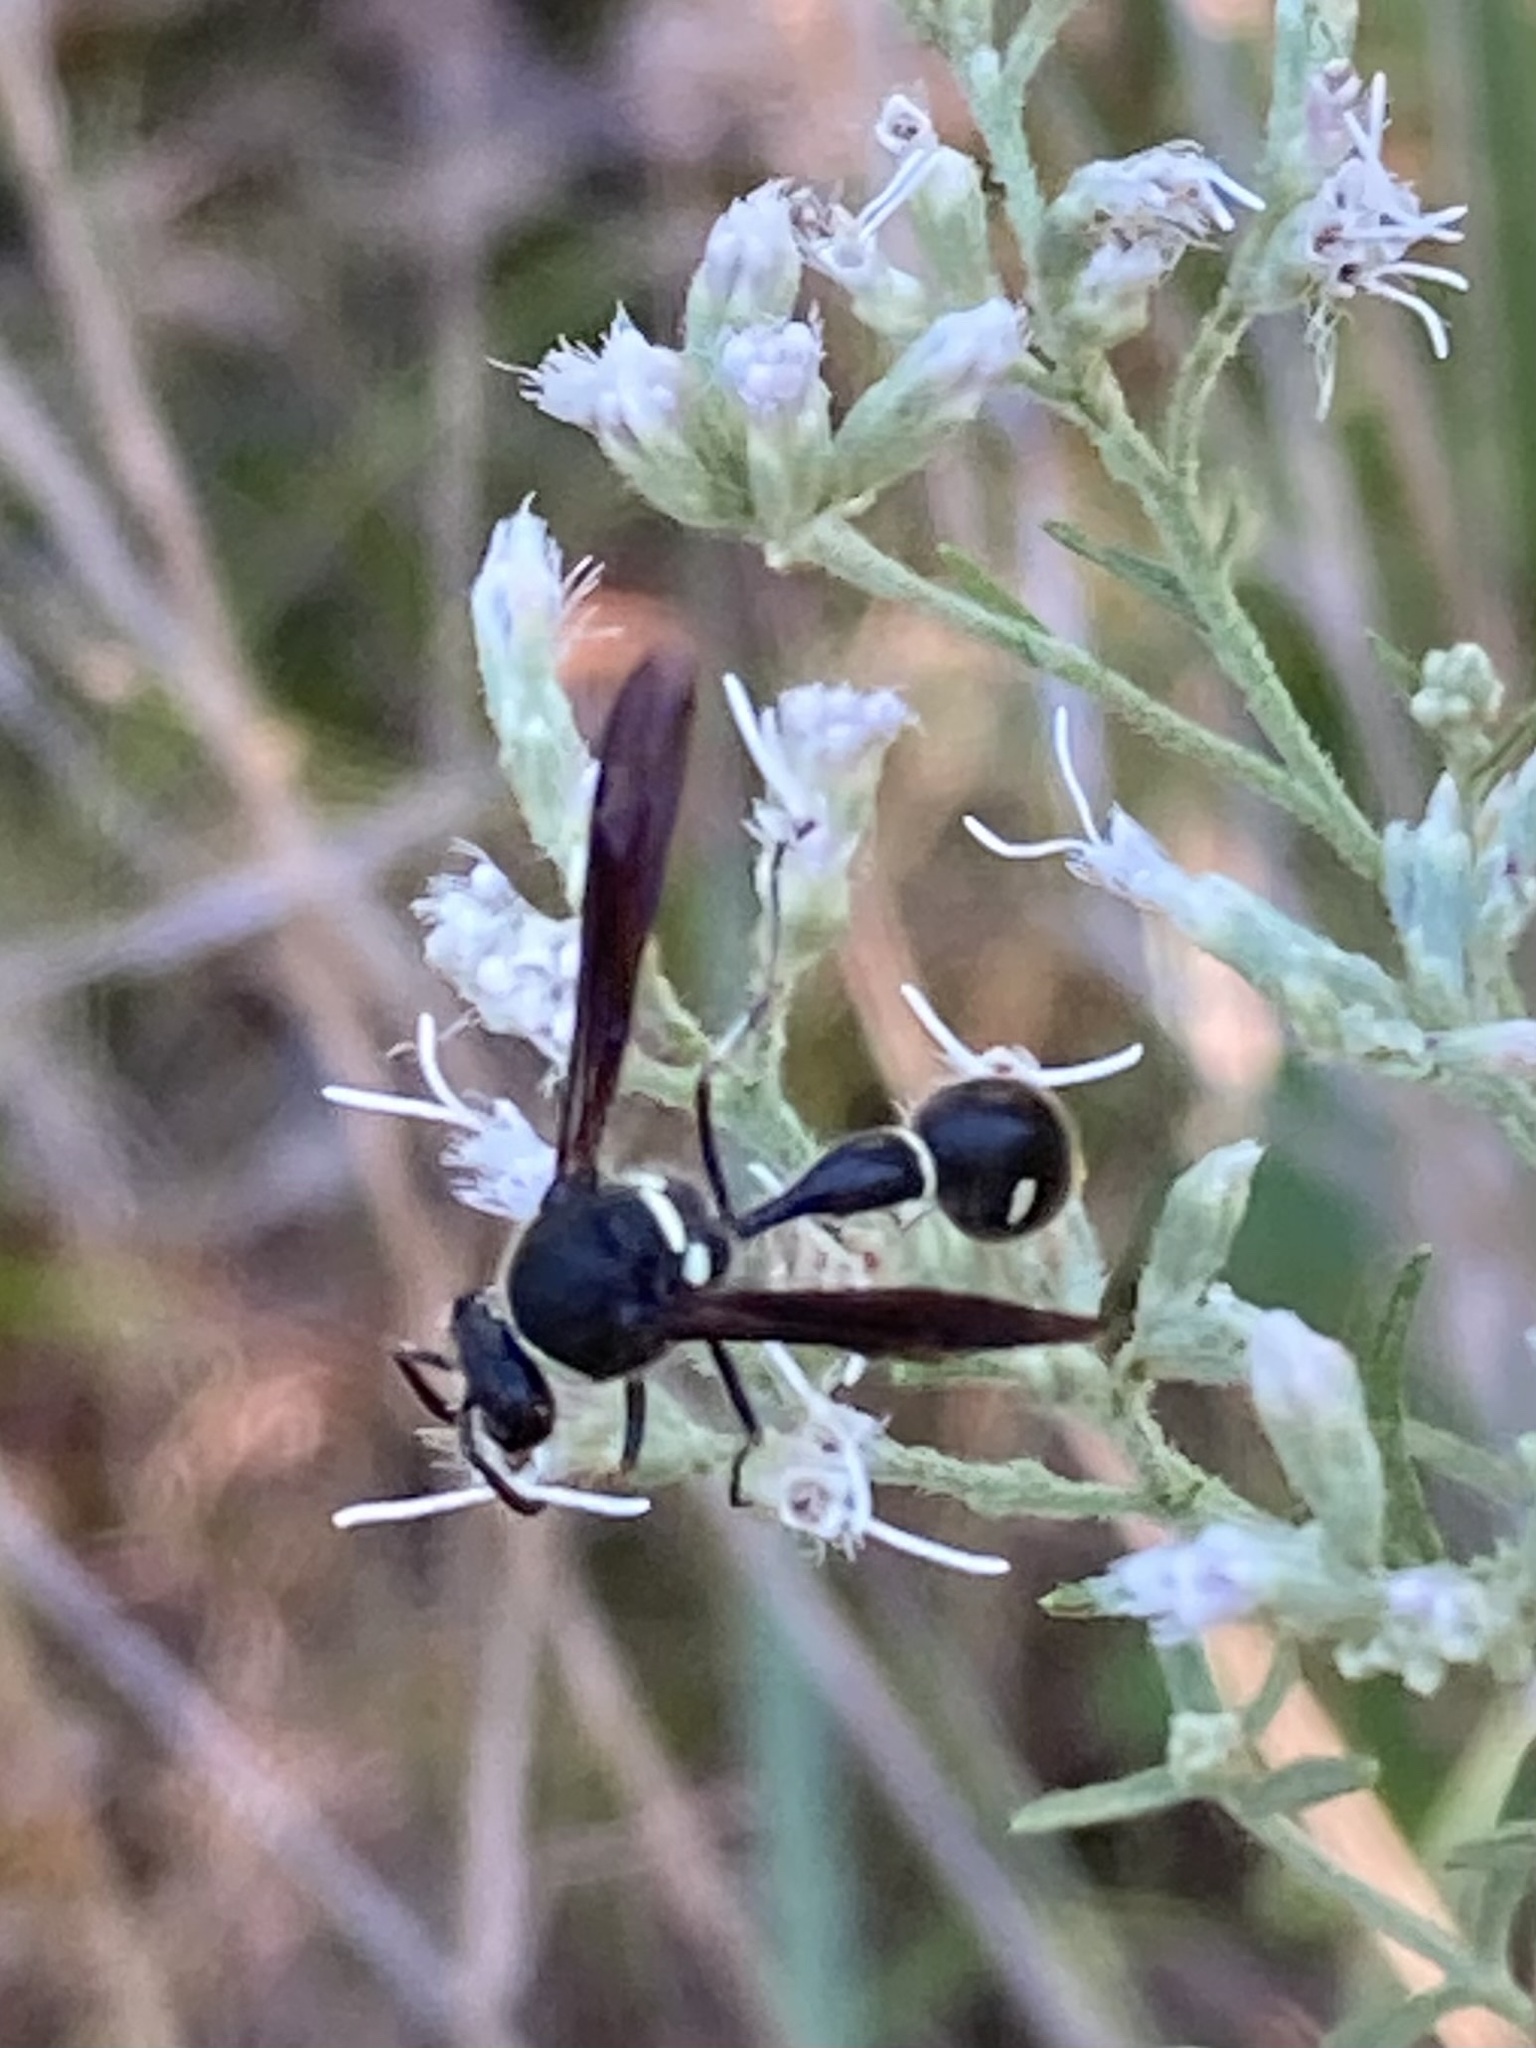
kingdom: Animalia
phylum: Arthropoda
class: Insecta
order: Hymenoptera
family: Vespidae
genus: Eumenes
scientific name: Eumenes fraternus
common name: Fraternal potter wasp
